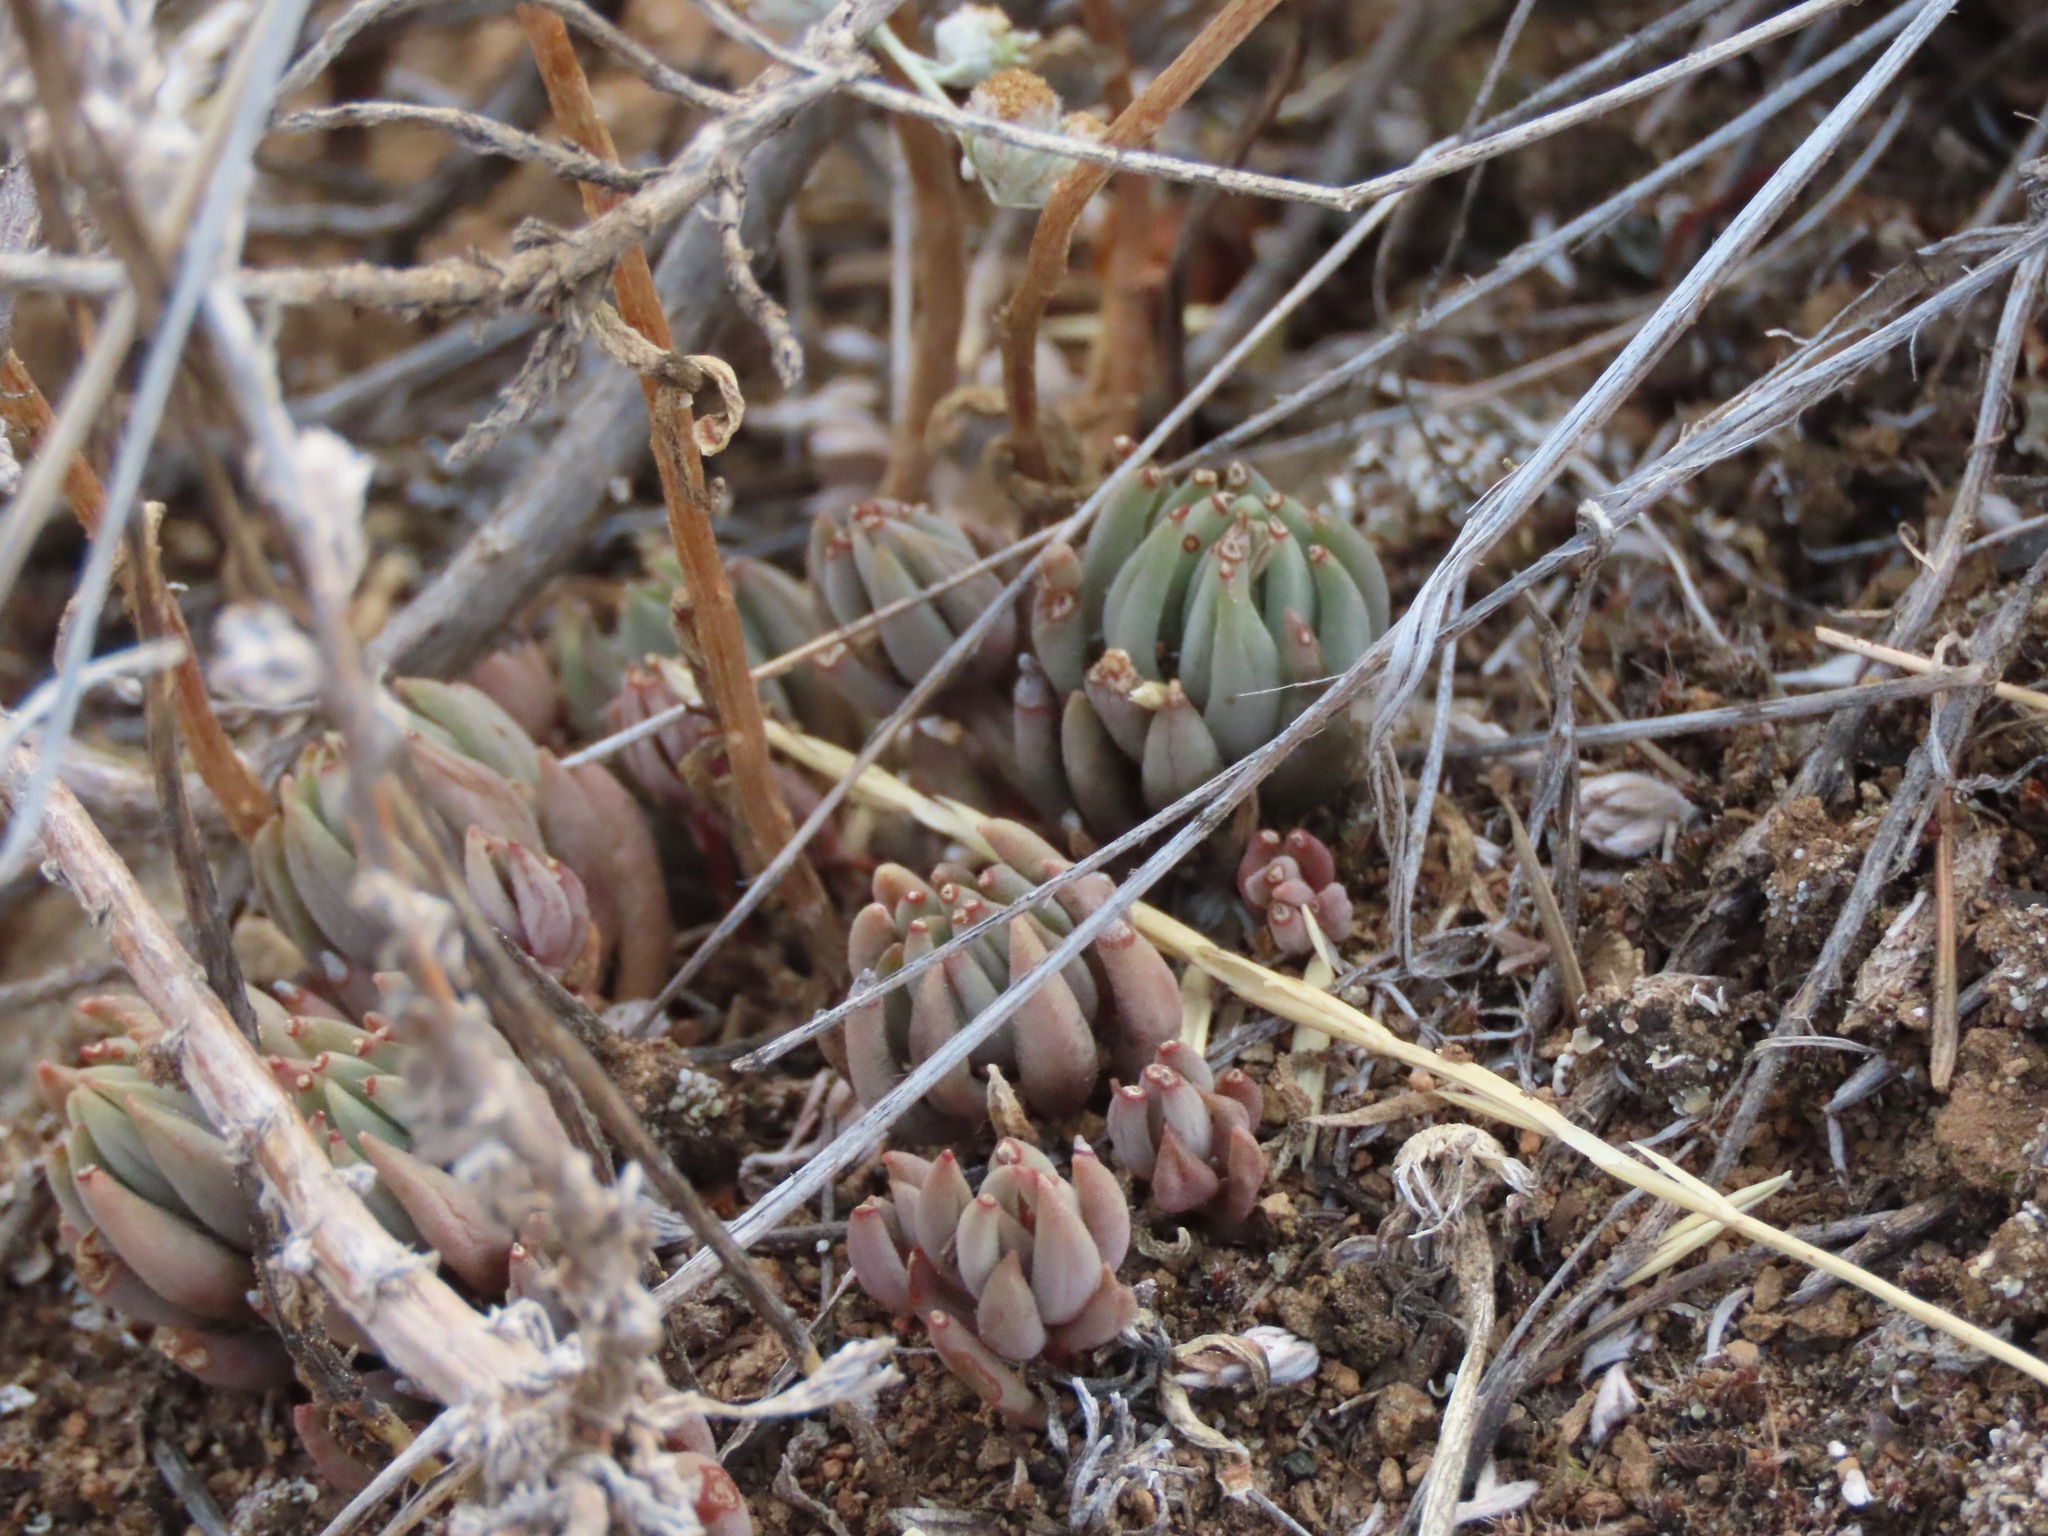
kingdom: Plantae
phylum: Tracheophyta
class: Magnoliopsida
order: Saxifragales
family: Crassulaceae
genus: Sedum
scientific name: Sedum lanceolatum
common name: Common stonecrop
